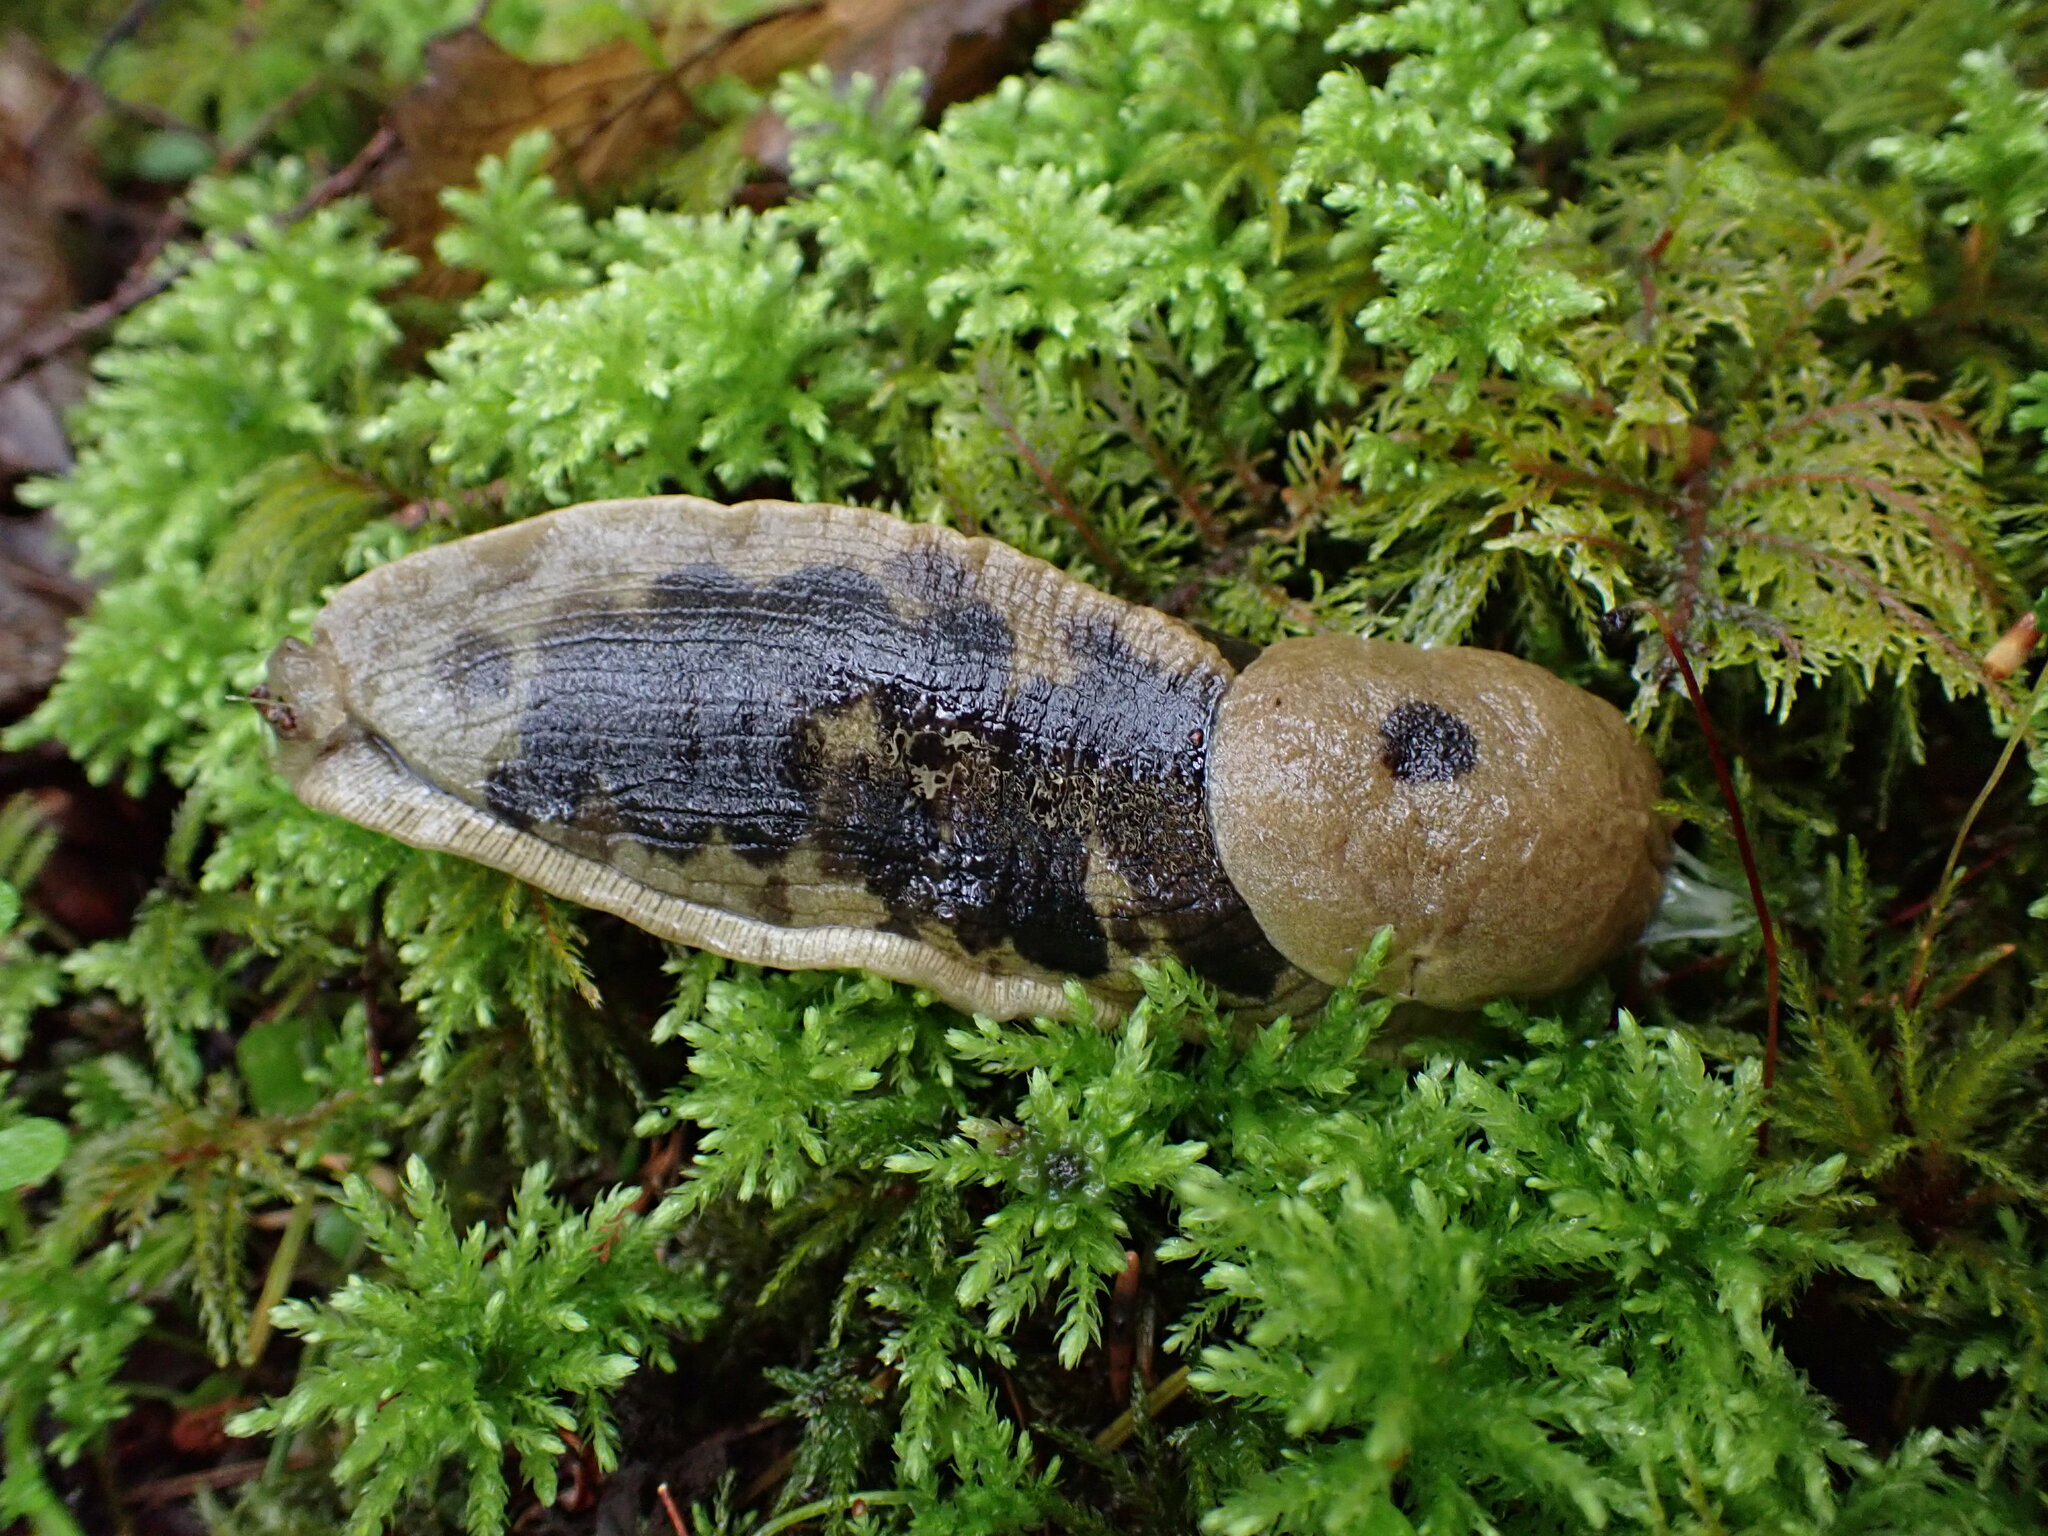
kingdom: Animalia
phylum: Mollusca
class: Gastropoda
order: Stylommatophora
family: Ariolimacidae
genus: Ariolimax
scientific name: Ariolimax columbianus
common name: Pacific banana slug
